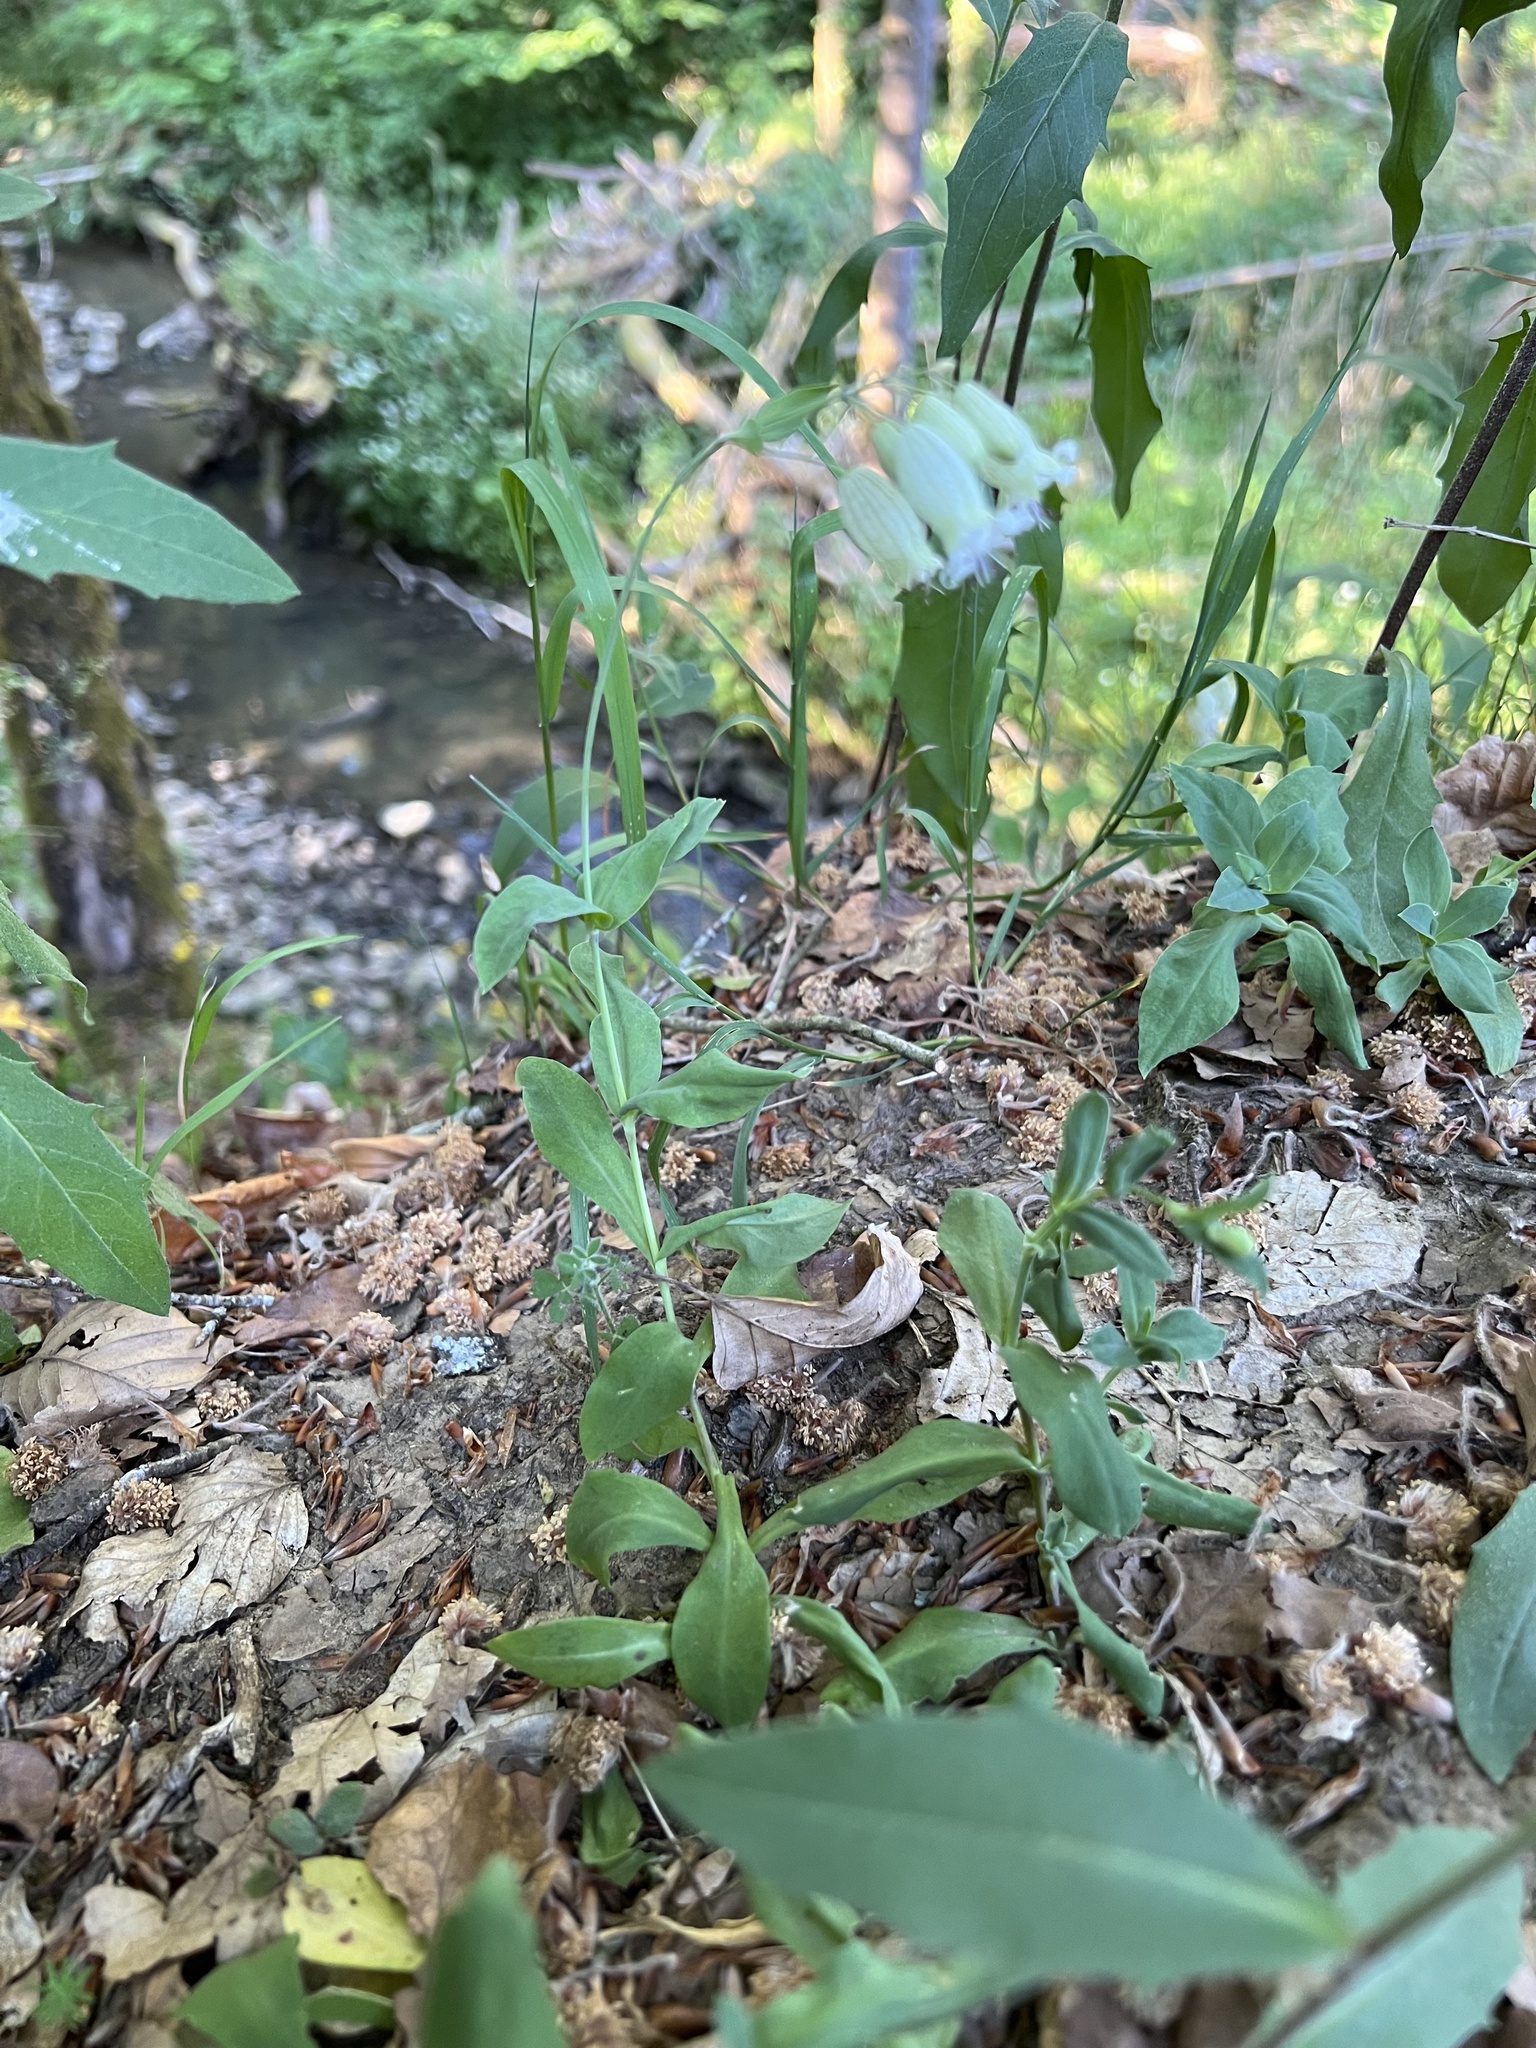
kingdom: Plantae
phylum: Tracheophyta
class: Magnoliopsida
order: Caryophyllales
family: Caryophyllaceae
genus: Silene
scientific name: Silene vulgaris
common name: Bladder campion
